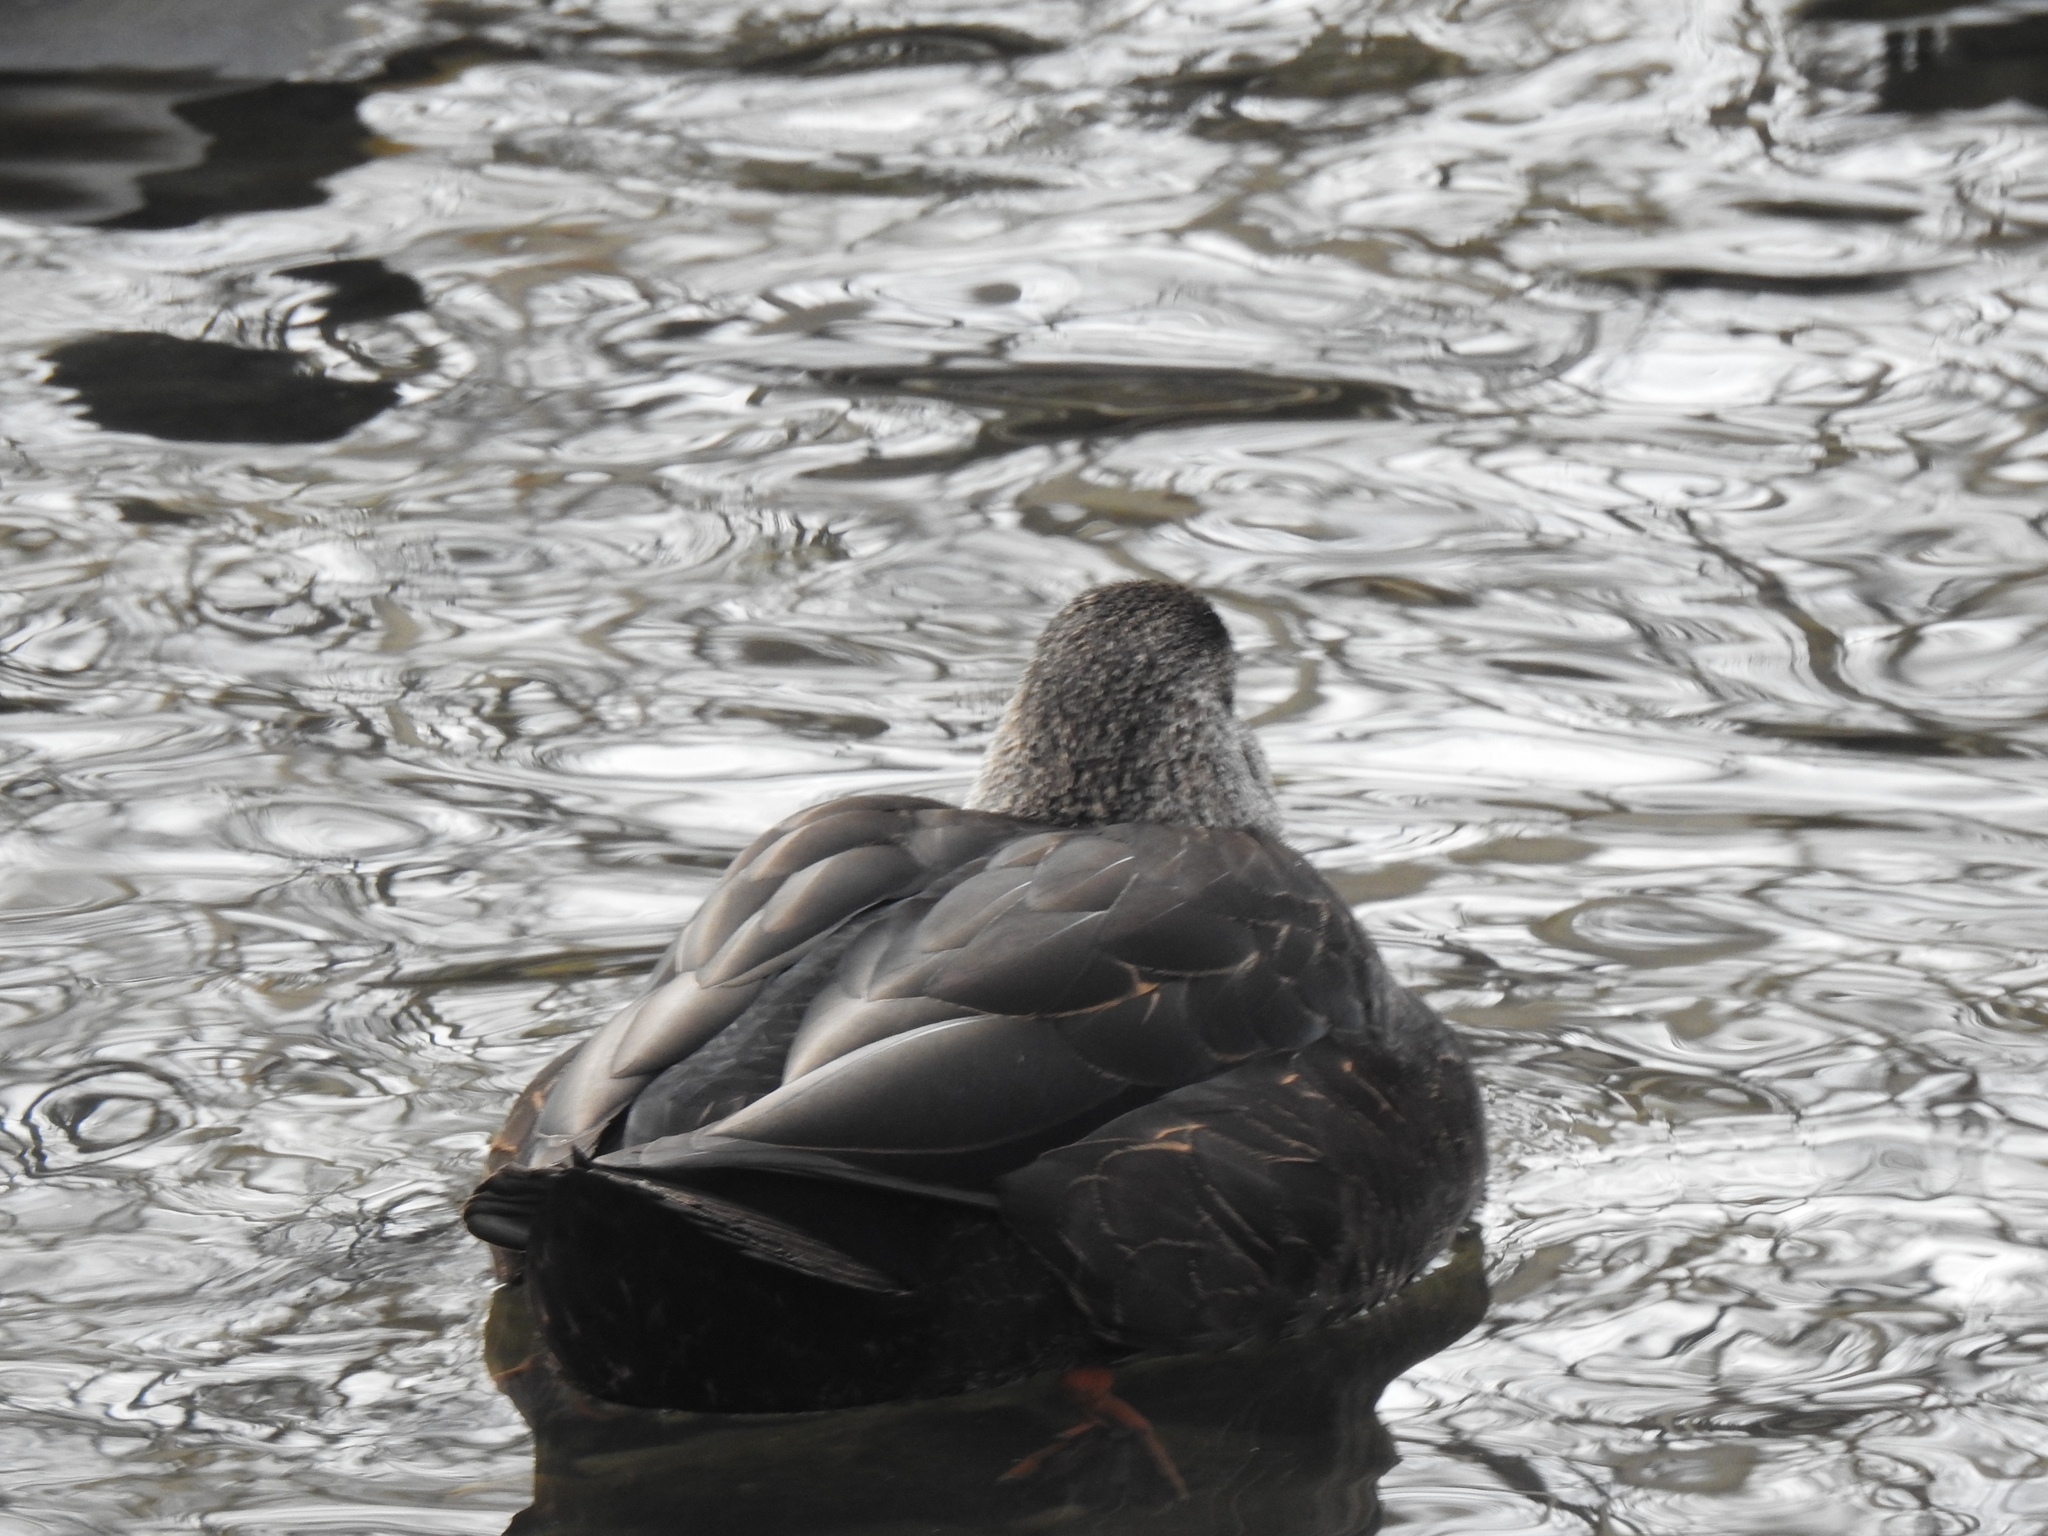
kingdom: Animalia
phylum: Chordata
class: Aves
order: Anseriformes
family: Anatidae
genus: Anas
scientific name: Anas rubripes
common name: American black duck
